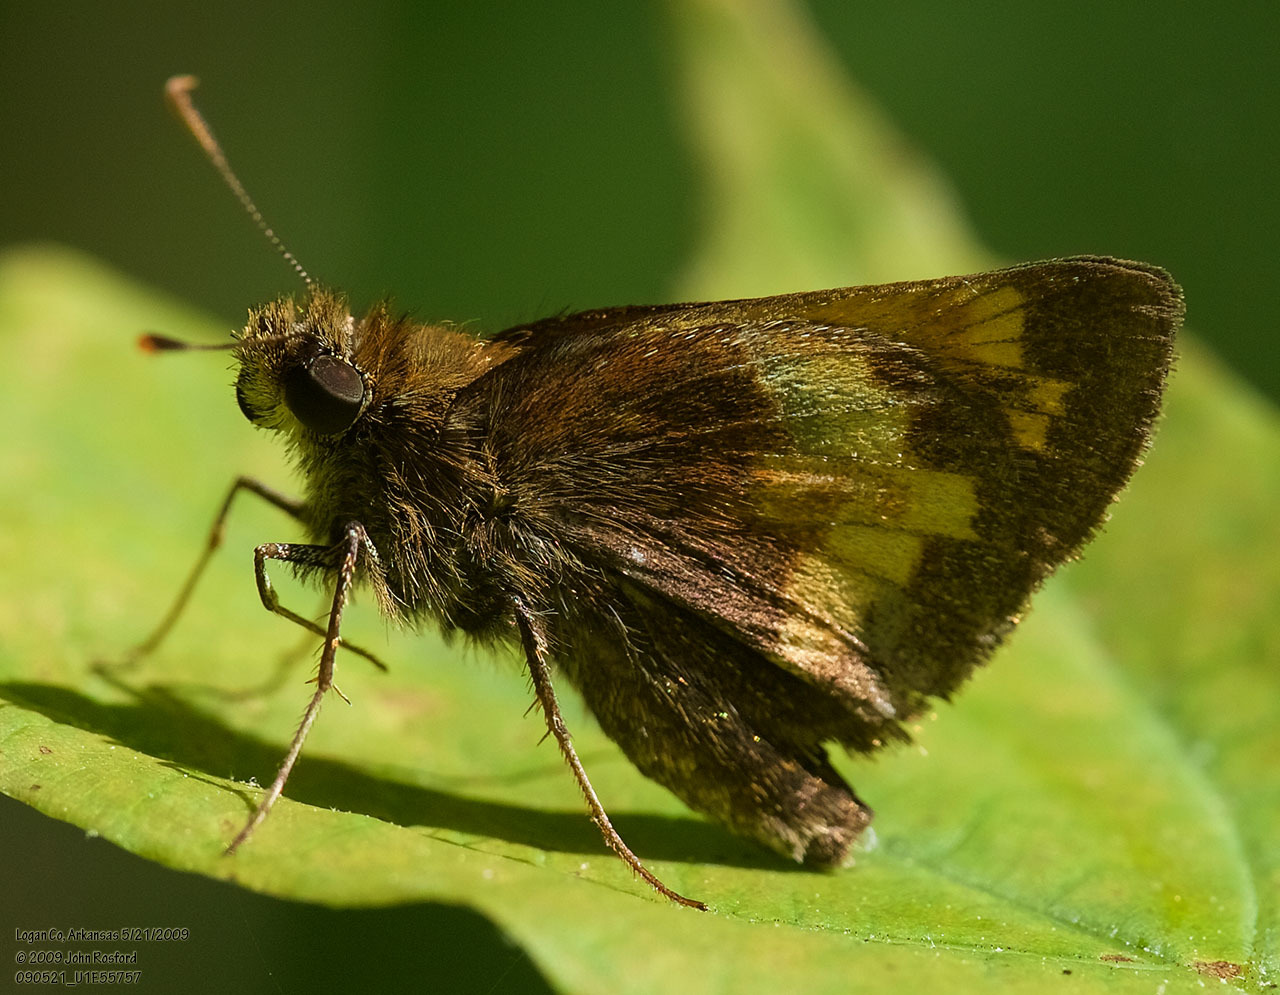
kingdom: Animalia
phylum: Arthropoda
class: Insecta
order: Lepidoptera
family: Hesperiidae
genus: Lon
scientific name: Lon hobomok
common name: Hobomok skipper
